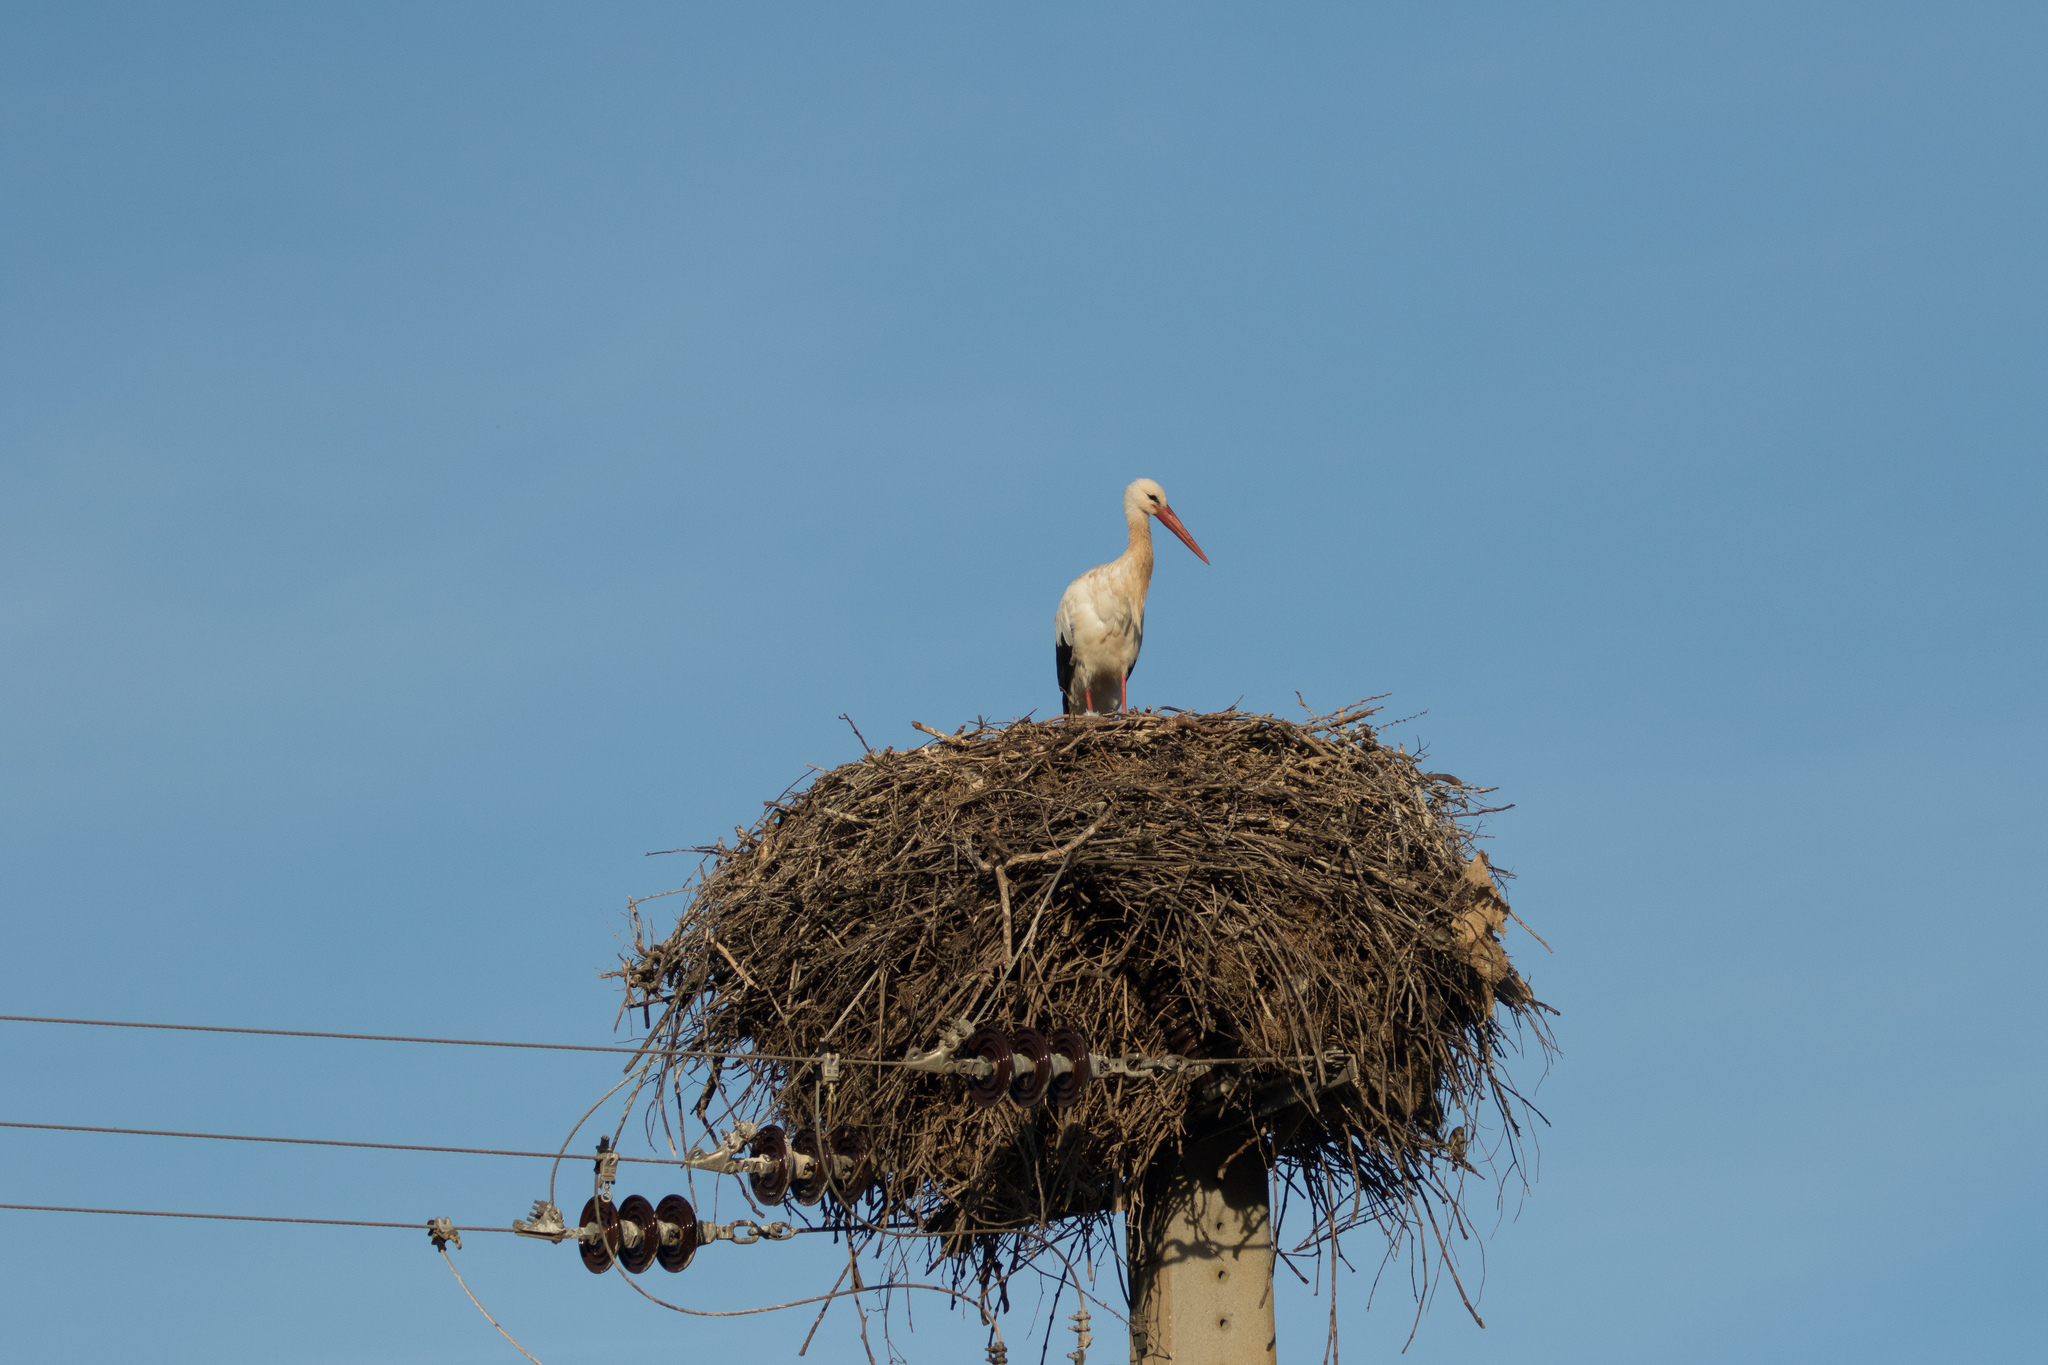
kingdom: Animalia
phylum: Chordata
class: Aves
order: Ciconiiformes
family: Ciconiidae
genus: Ciconia
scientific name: Ciconia ciconia
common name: White stork
